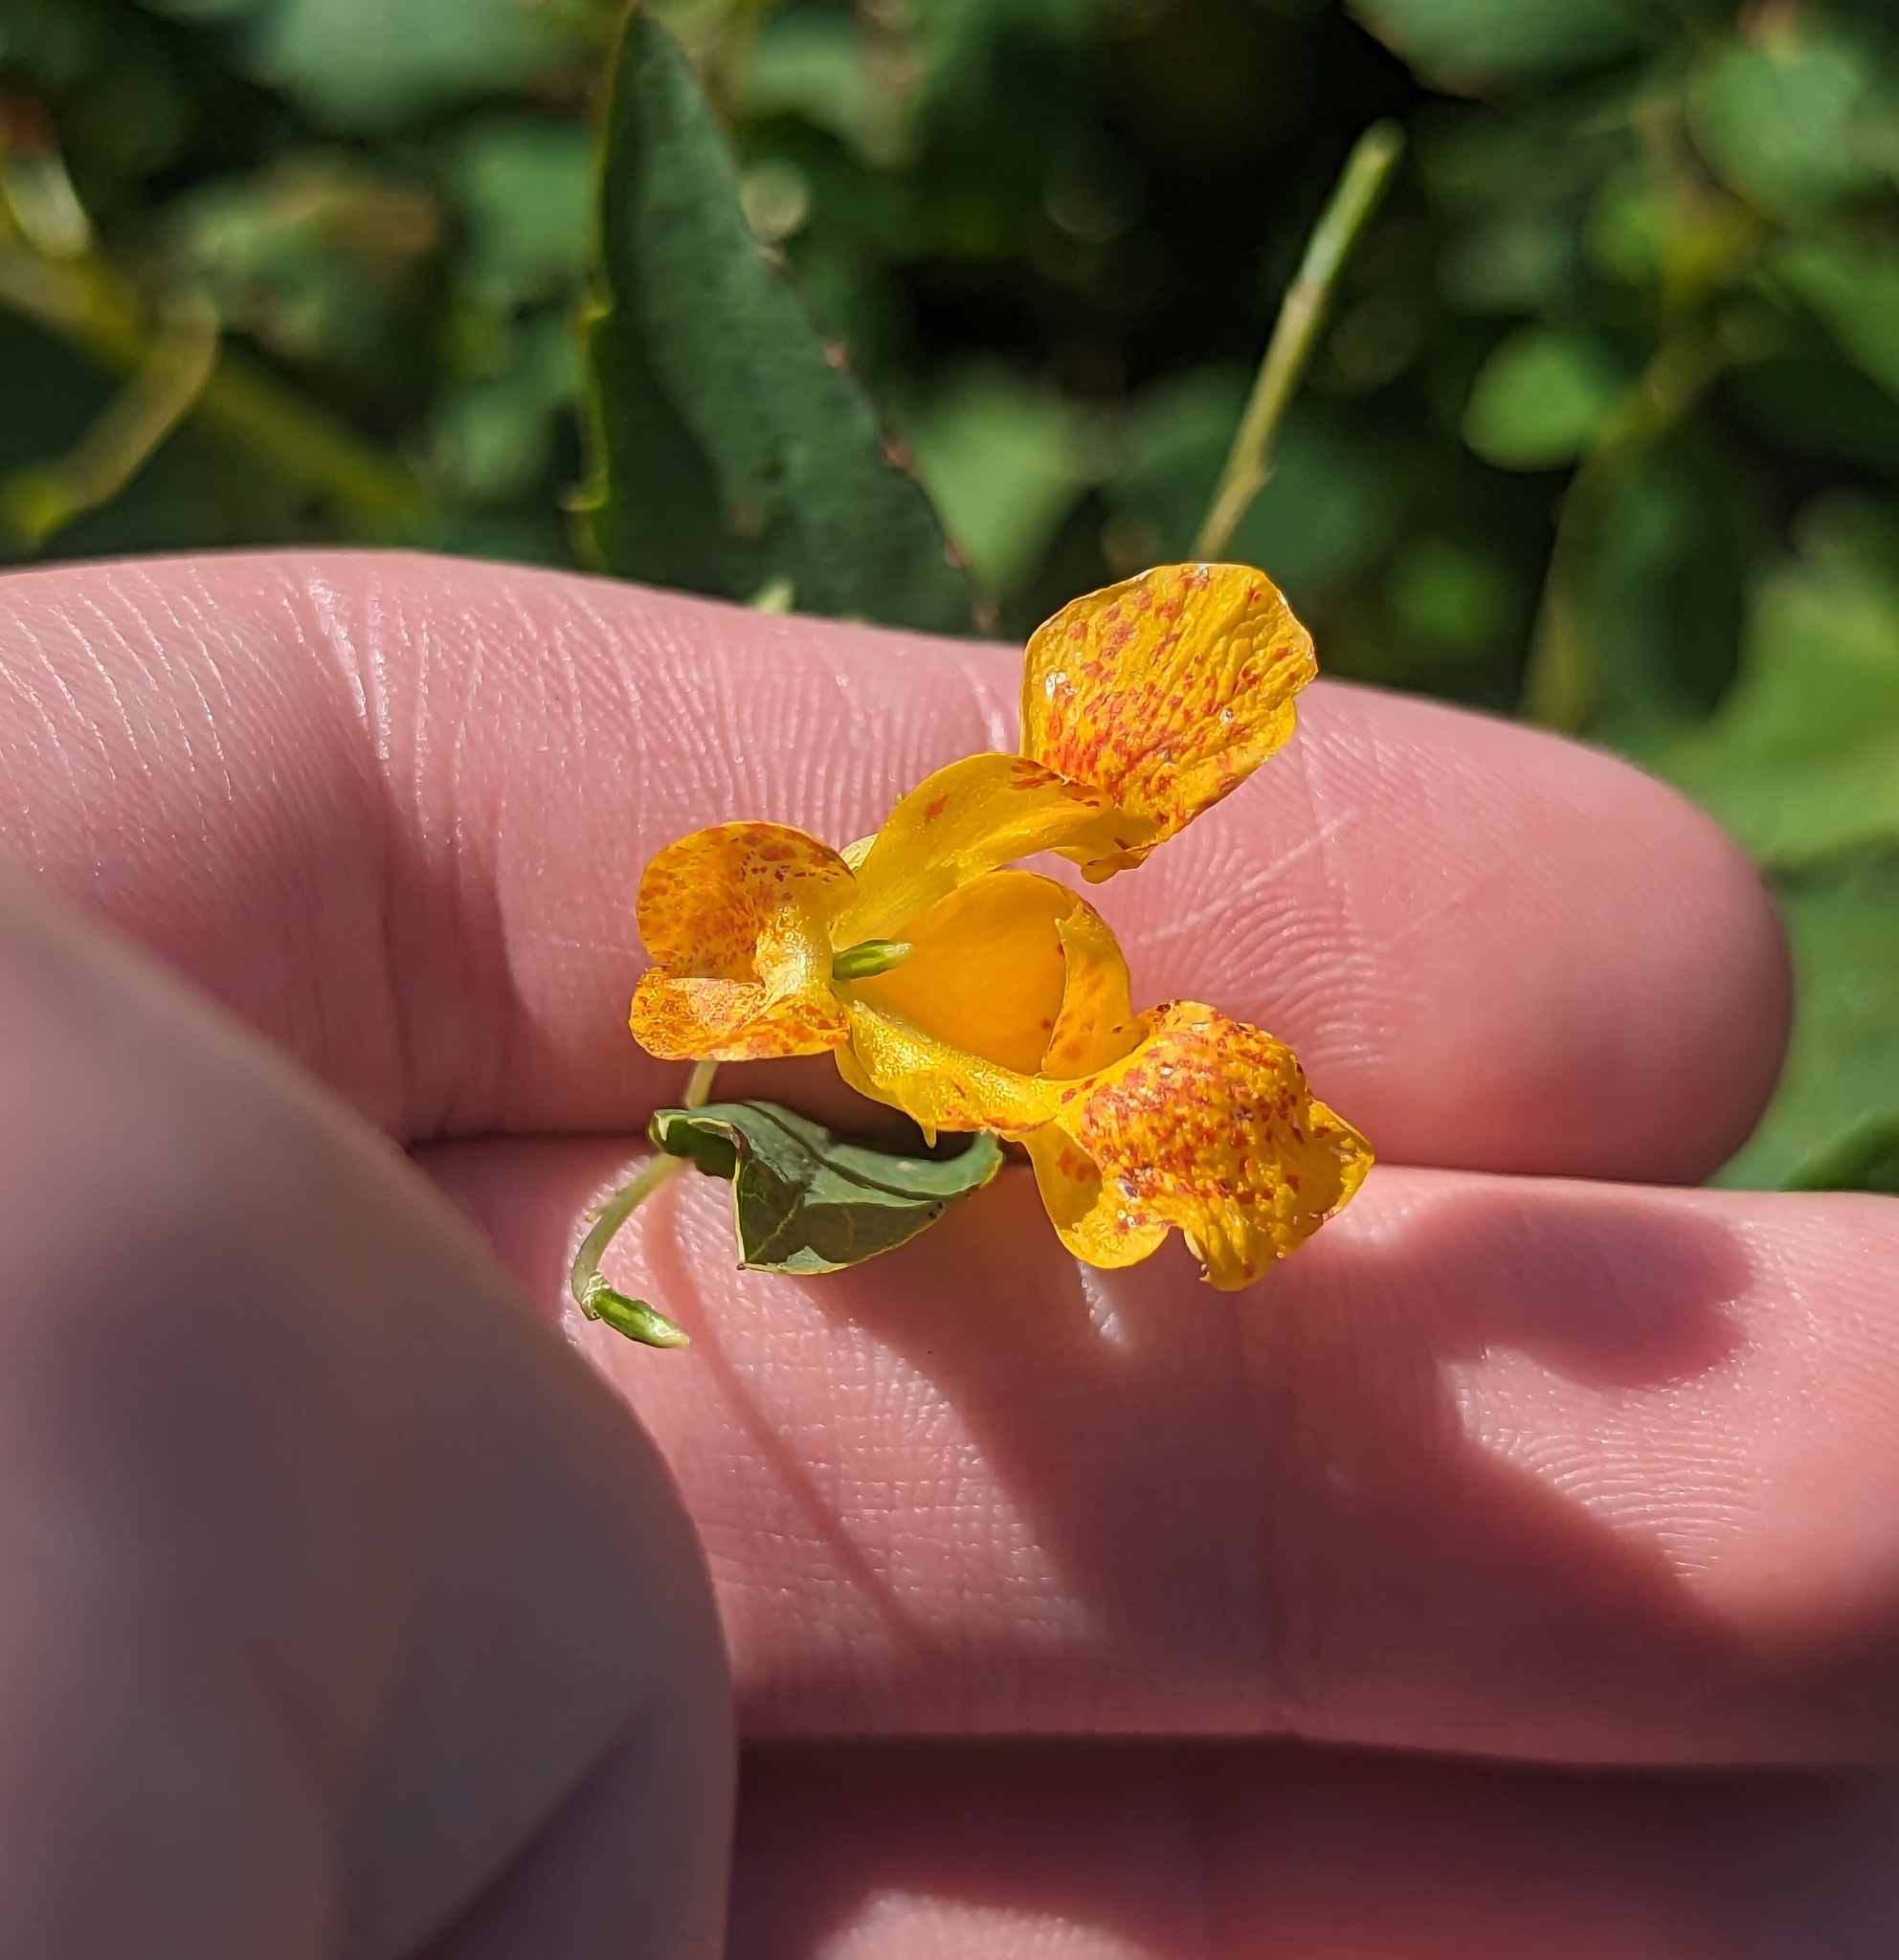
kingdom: Plantae
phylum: Tracheophyta
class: Magnoliopsida
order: Ericales
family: Balsaminaceae
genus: Impatiens
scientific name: Impatiens capensis
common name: Orange balsam
